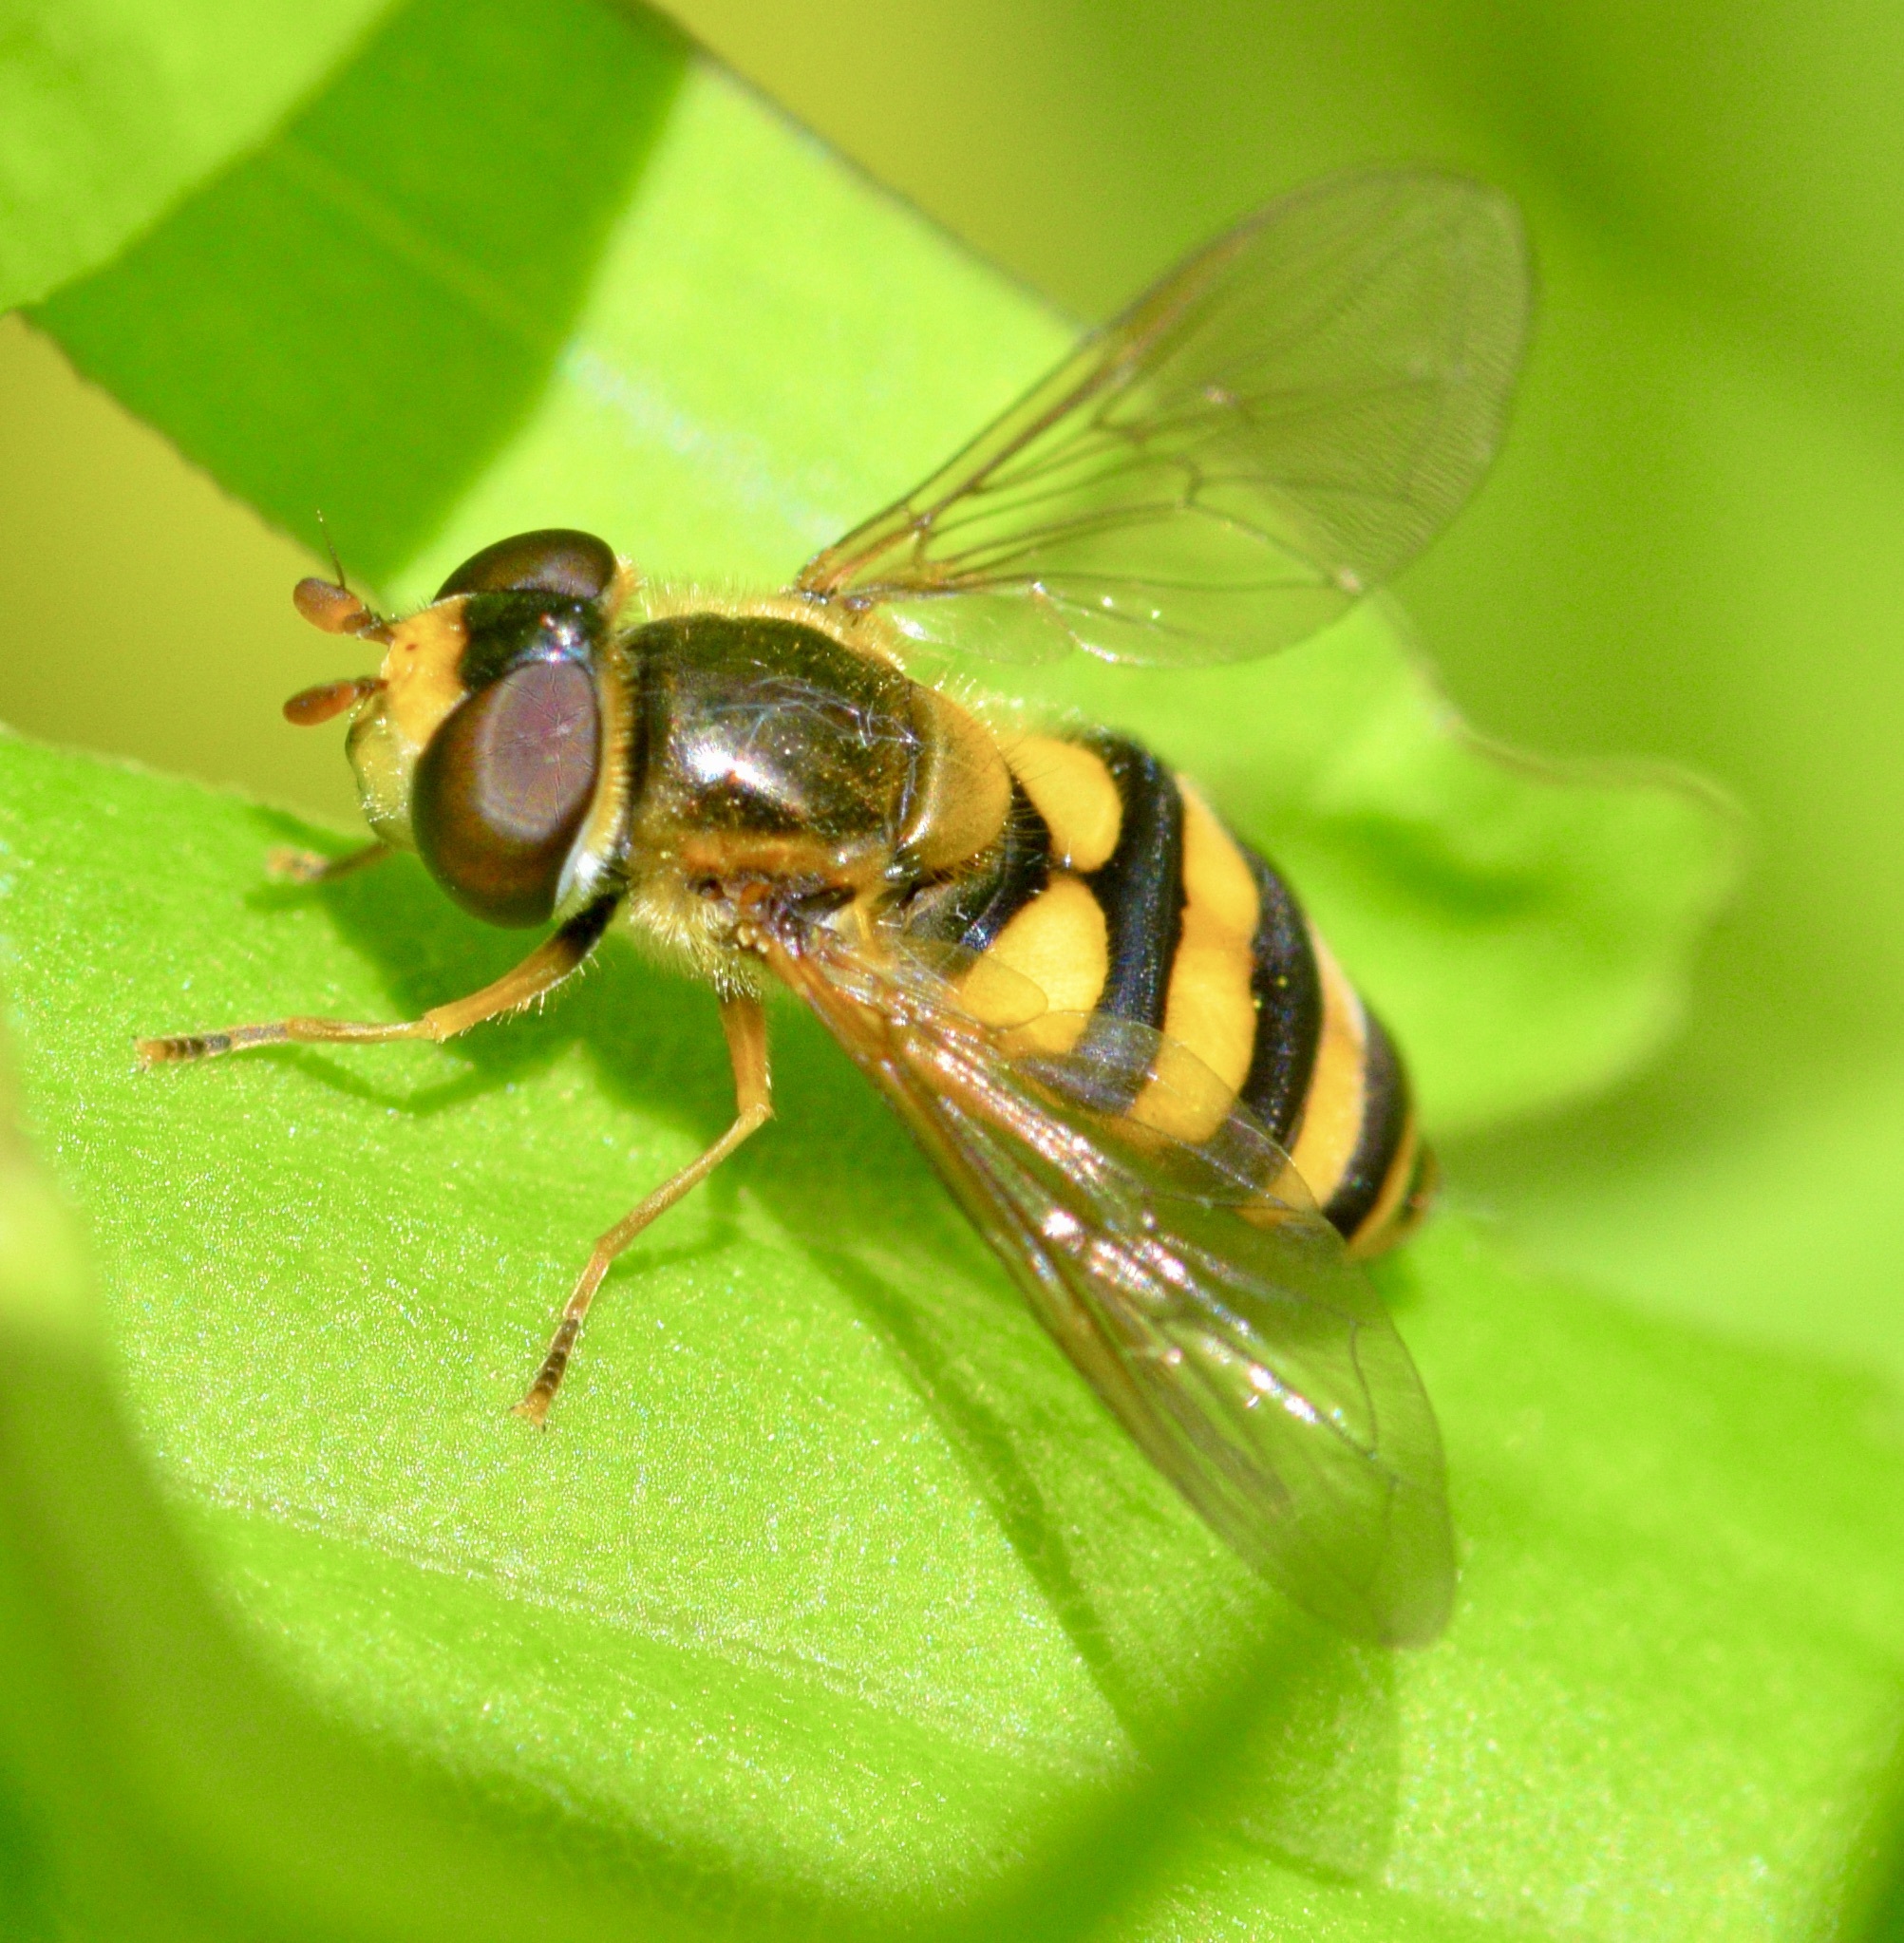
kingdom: Animalia
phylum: Arthropoda
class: Insecta
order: Diptera
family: Syrphidae
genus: Eupeodes
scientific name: Eupeodes latifasciatus
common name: Variable aphideater
